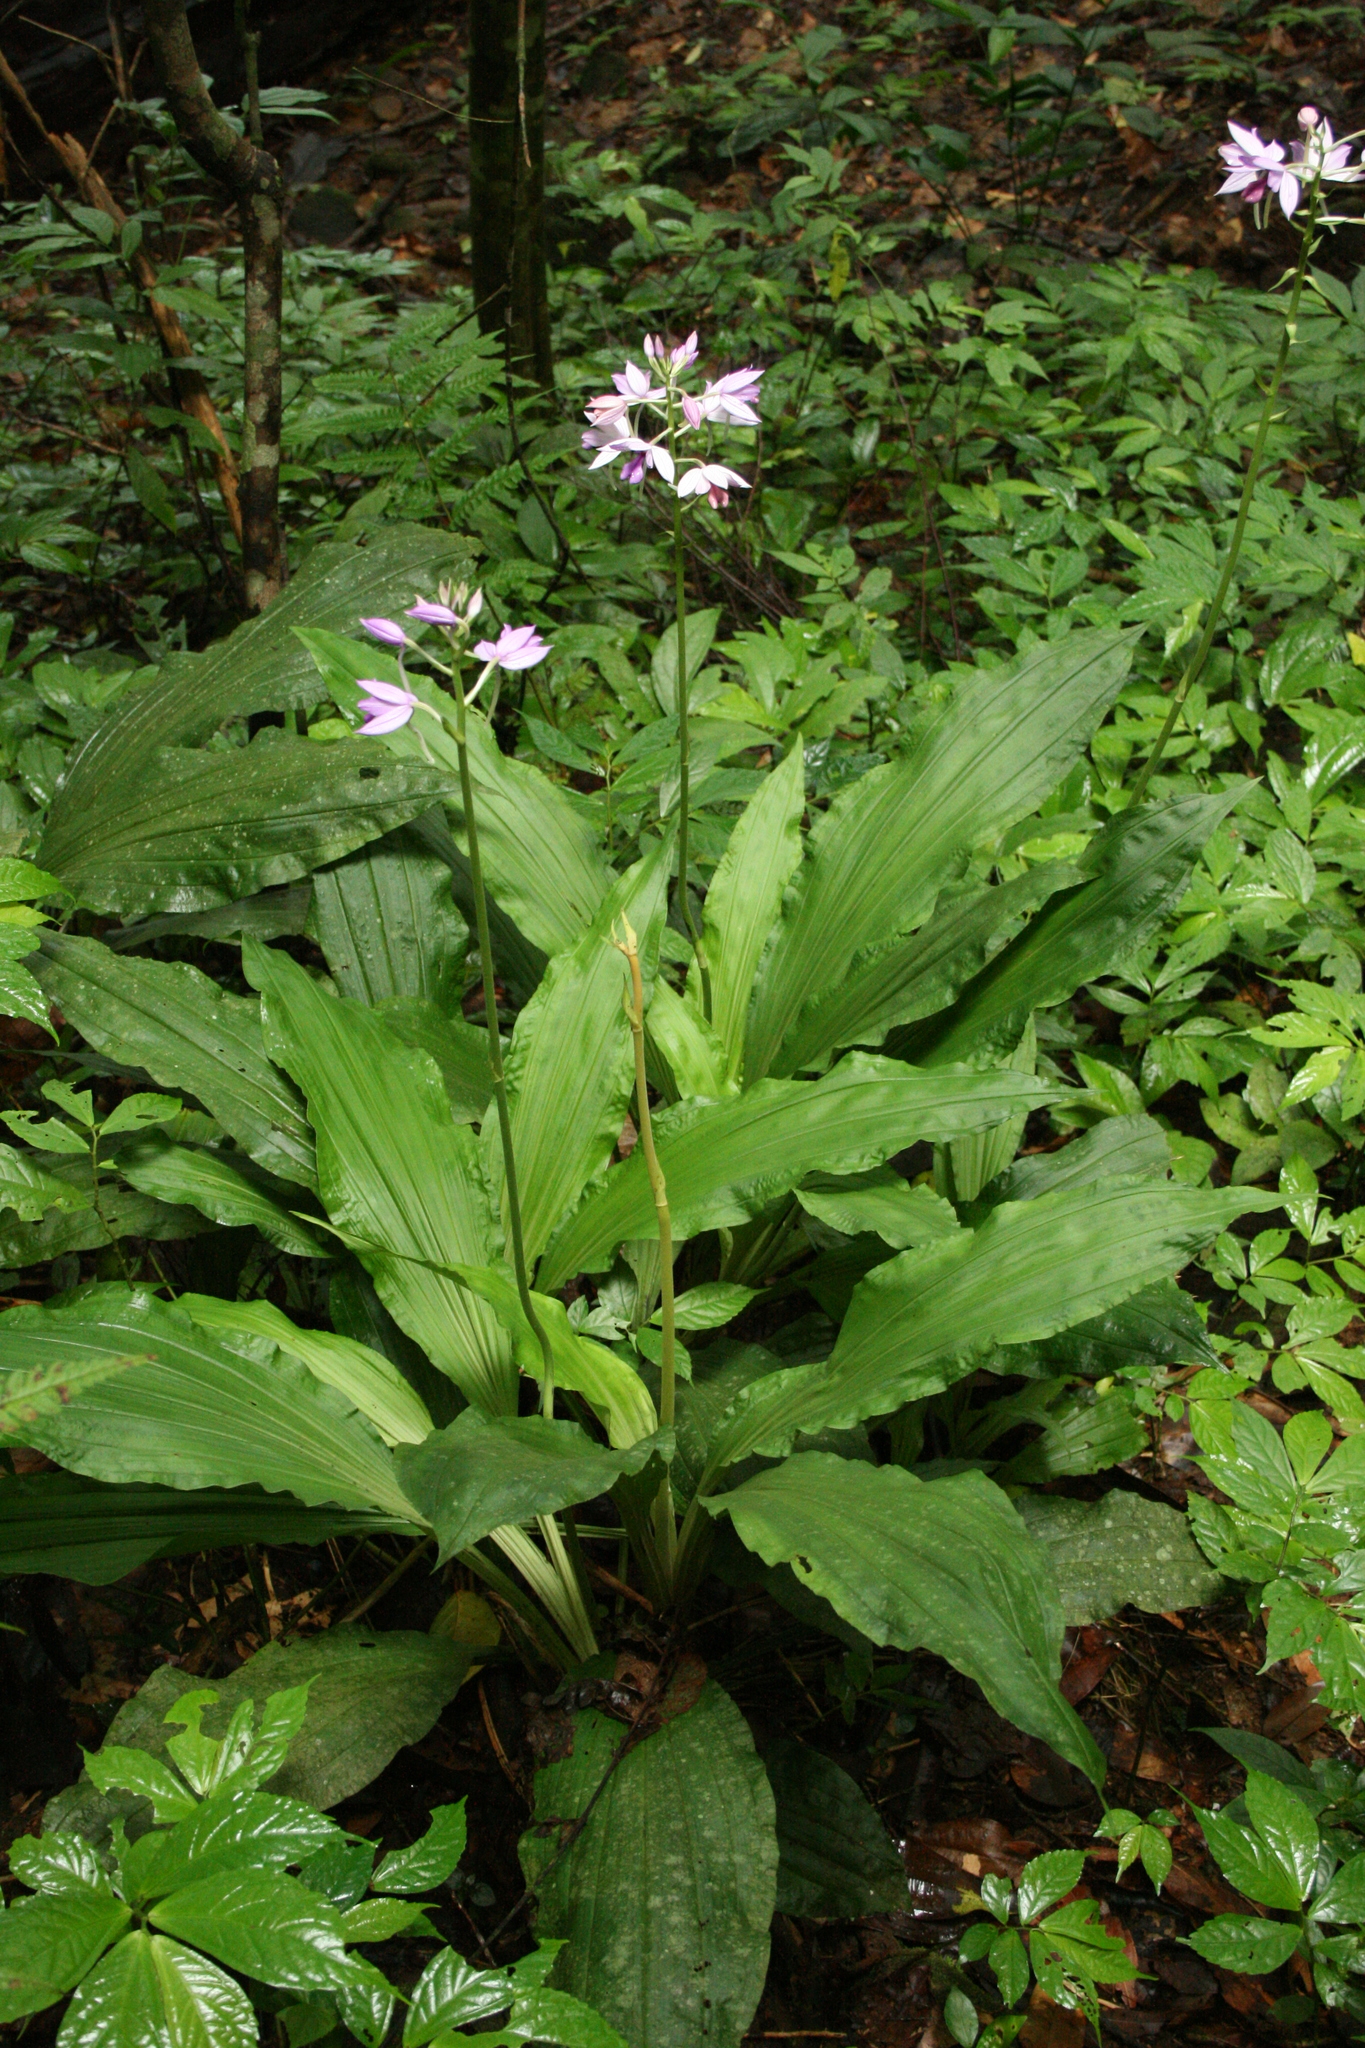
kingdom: Plantae
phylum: Tracheophyta
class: Liliopsida
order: Asparagales
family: Orchidaceae
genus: Calanthe
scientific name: Calanthe masuca
